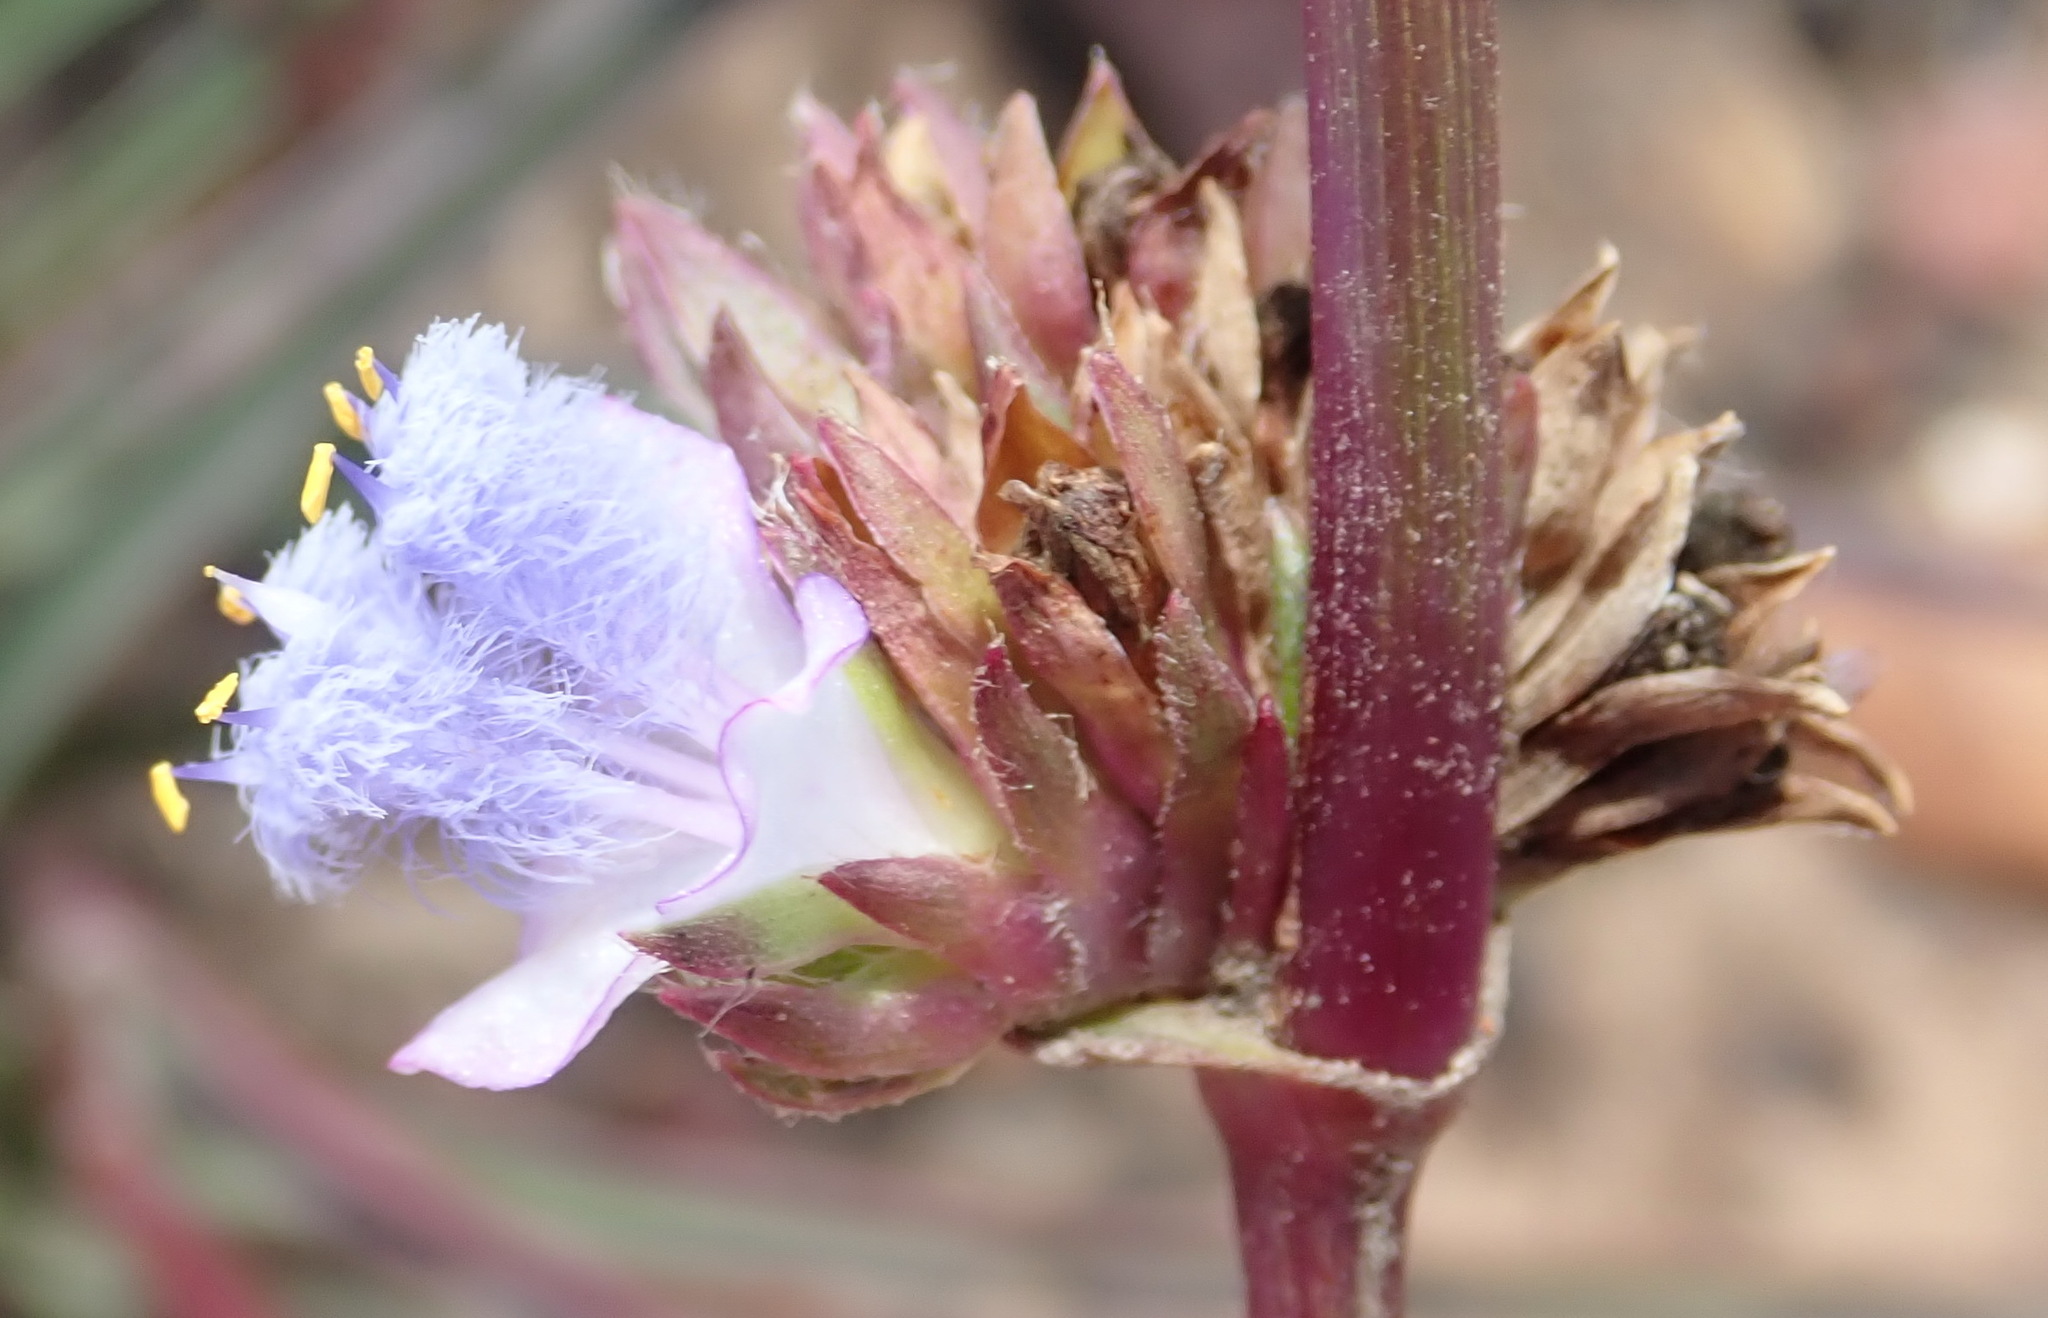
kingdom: Plantae
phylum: Tracheophyta
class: Liliopsida
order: Commelinales
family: Commelinaceae
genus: Cyanotis
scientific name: Cyanotis speciosa
